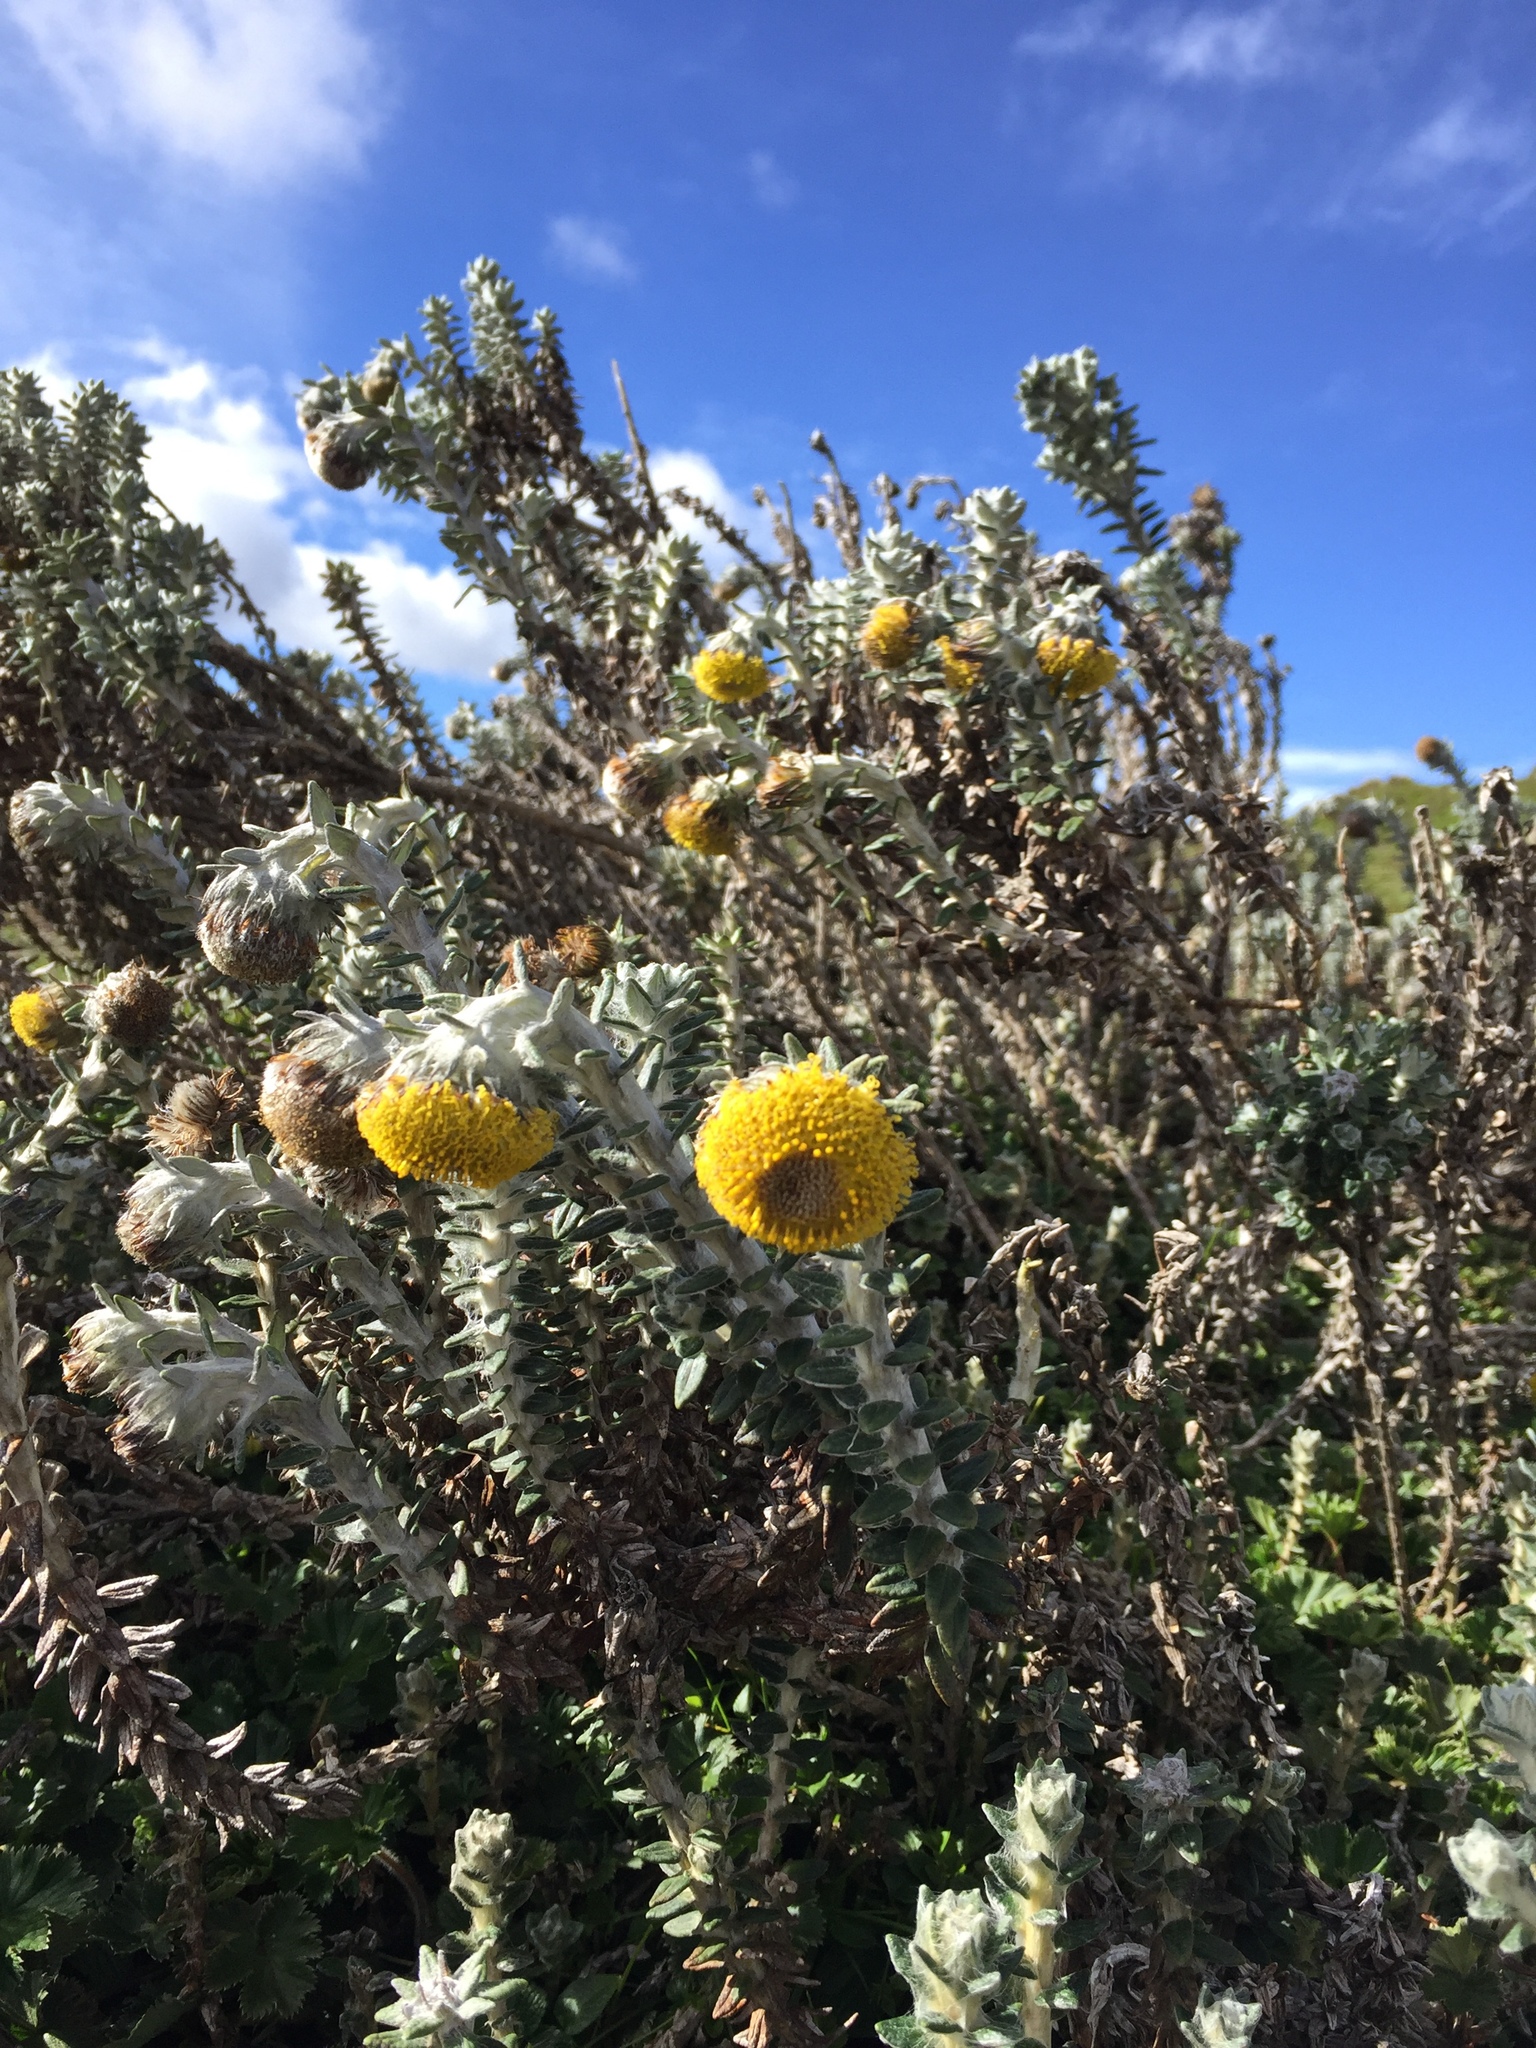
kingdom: Plantae
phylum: Tracheophyta
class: Magnoliopsida
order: Asterales
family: Asteraceae
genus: Lasiocephalus
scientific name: Lasiocephalus ovatus
